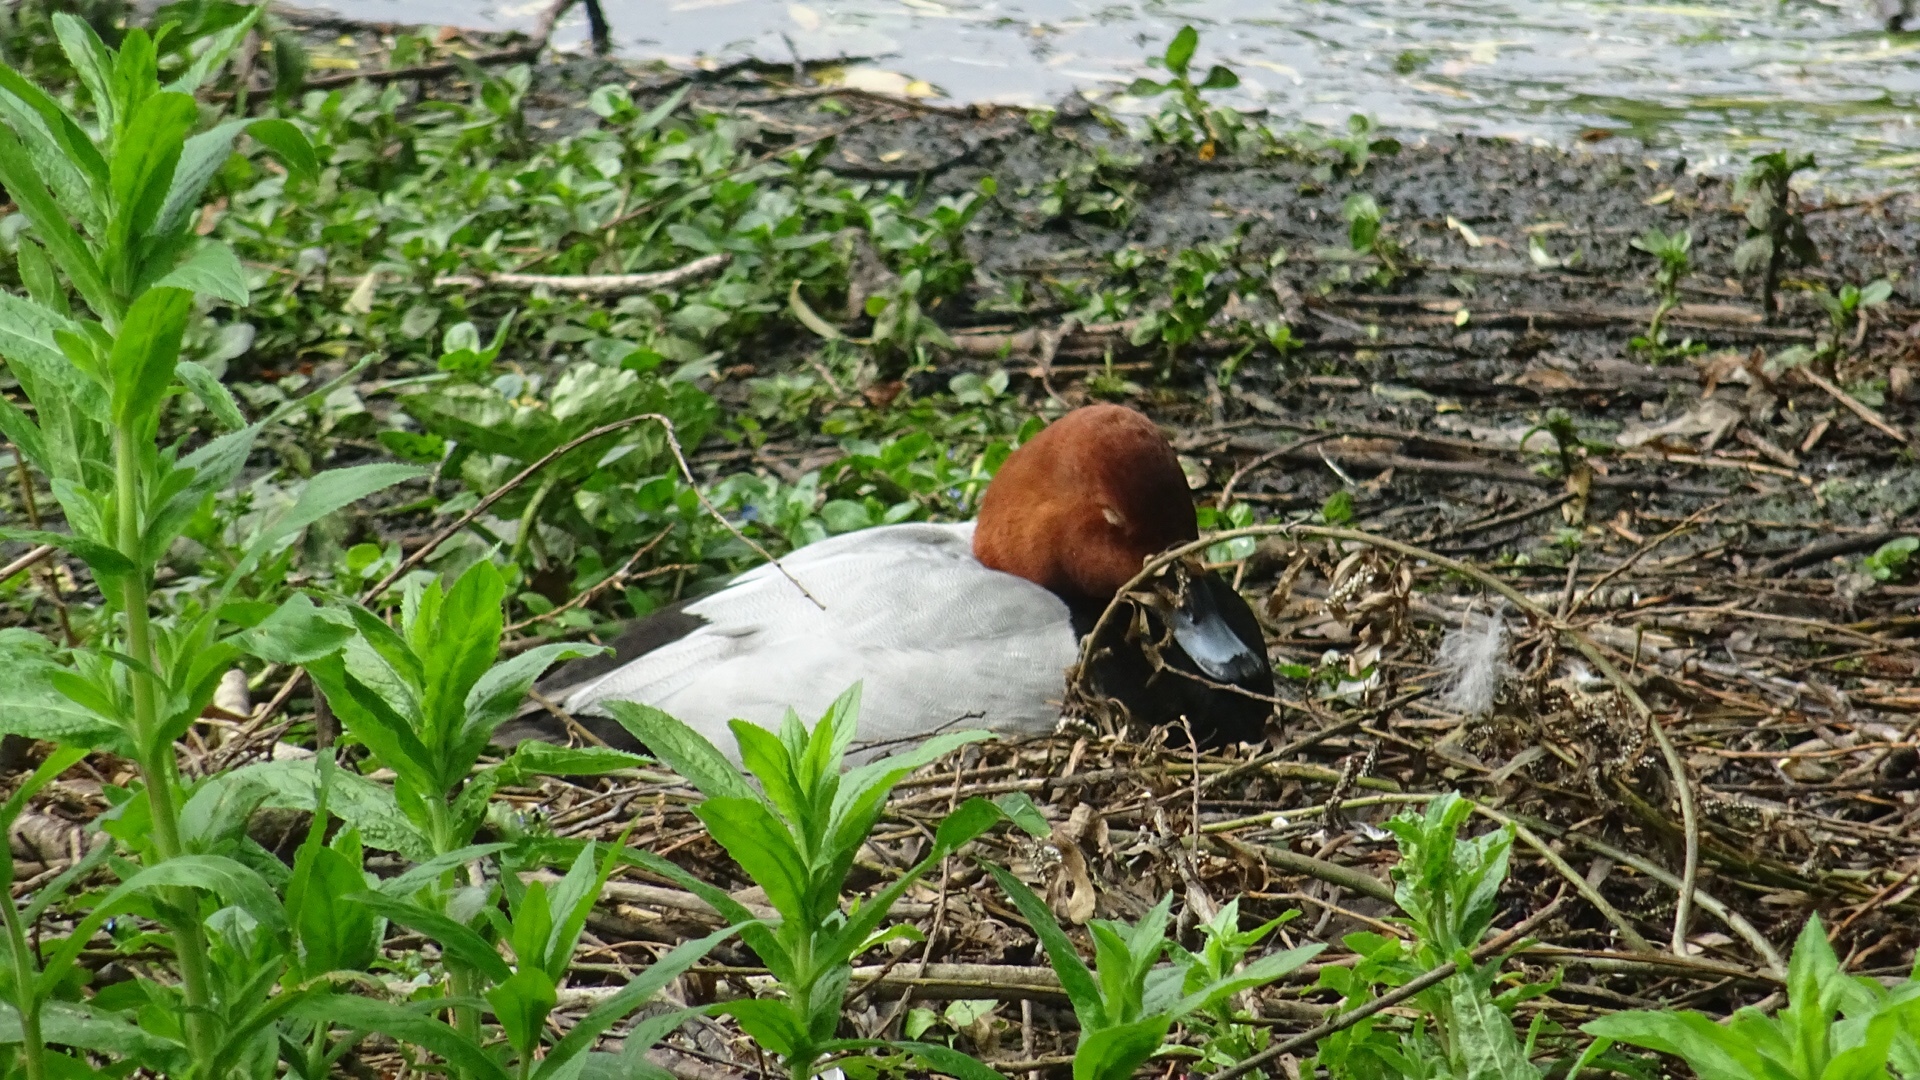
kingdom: Animalia
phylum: Chordata
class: Aves
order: Anseriformes
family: Anatidae
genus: Aythya
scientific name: Aythya ferina
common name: Common pochard
